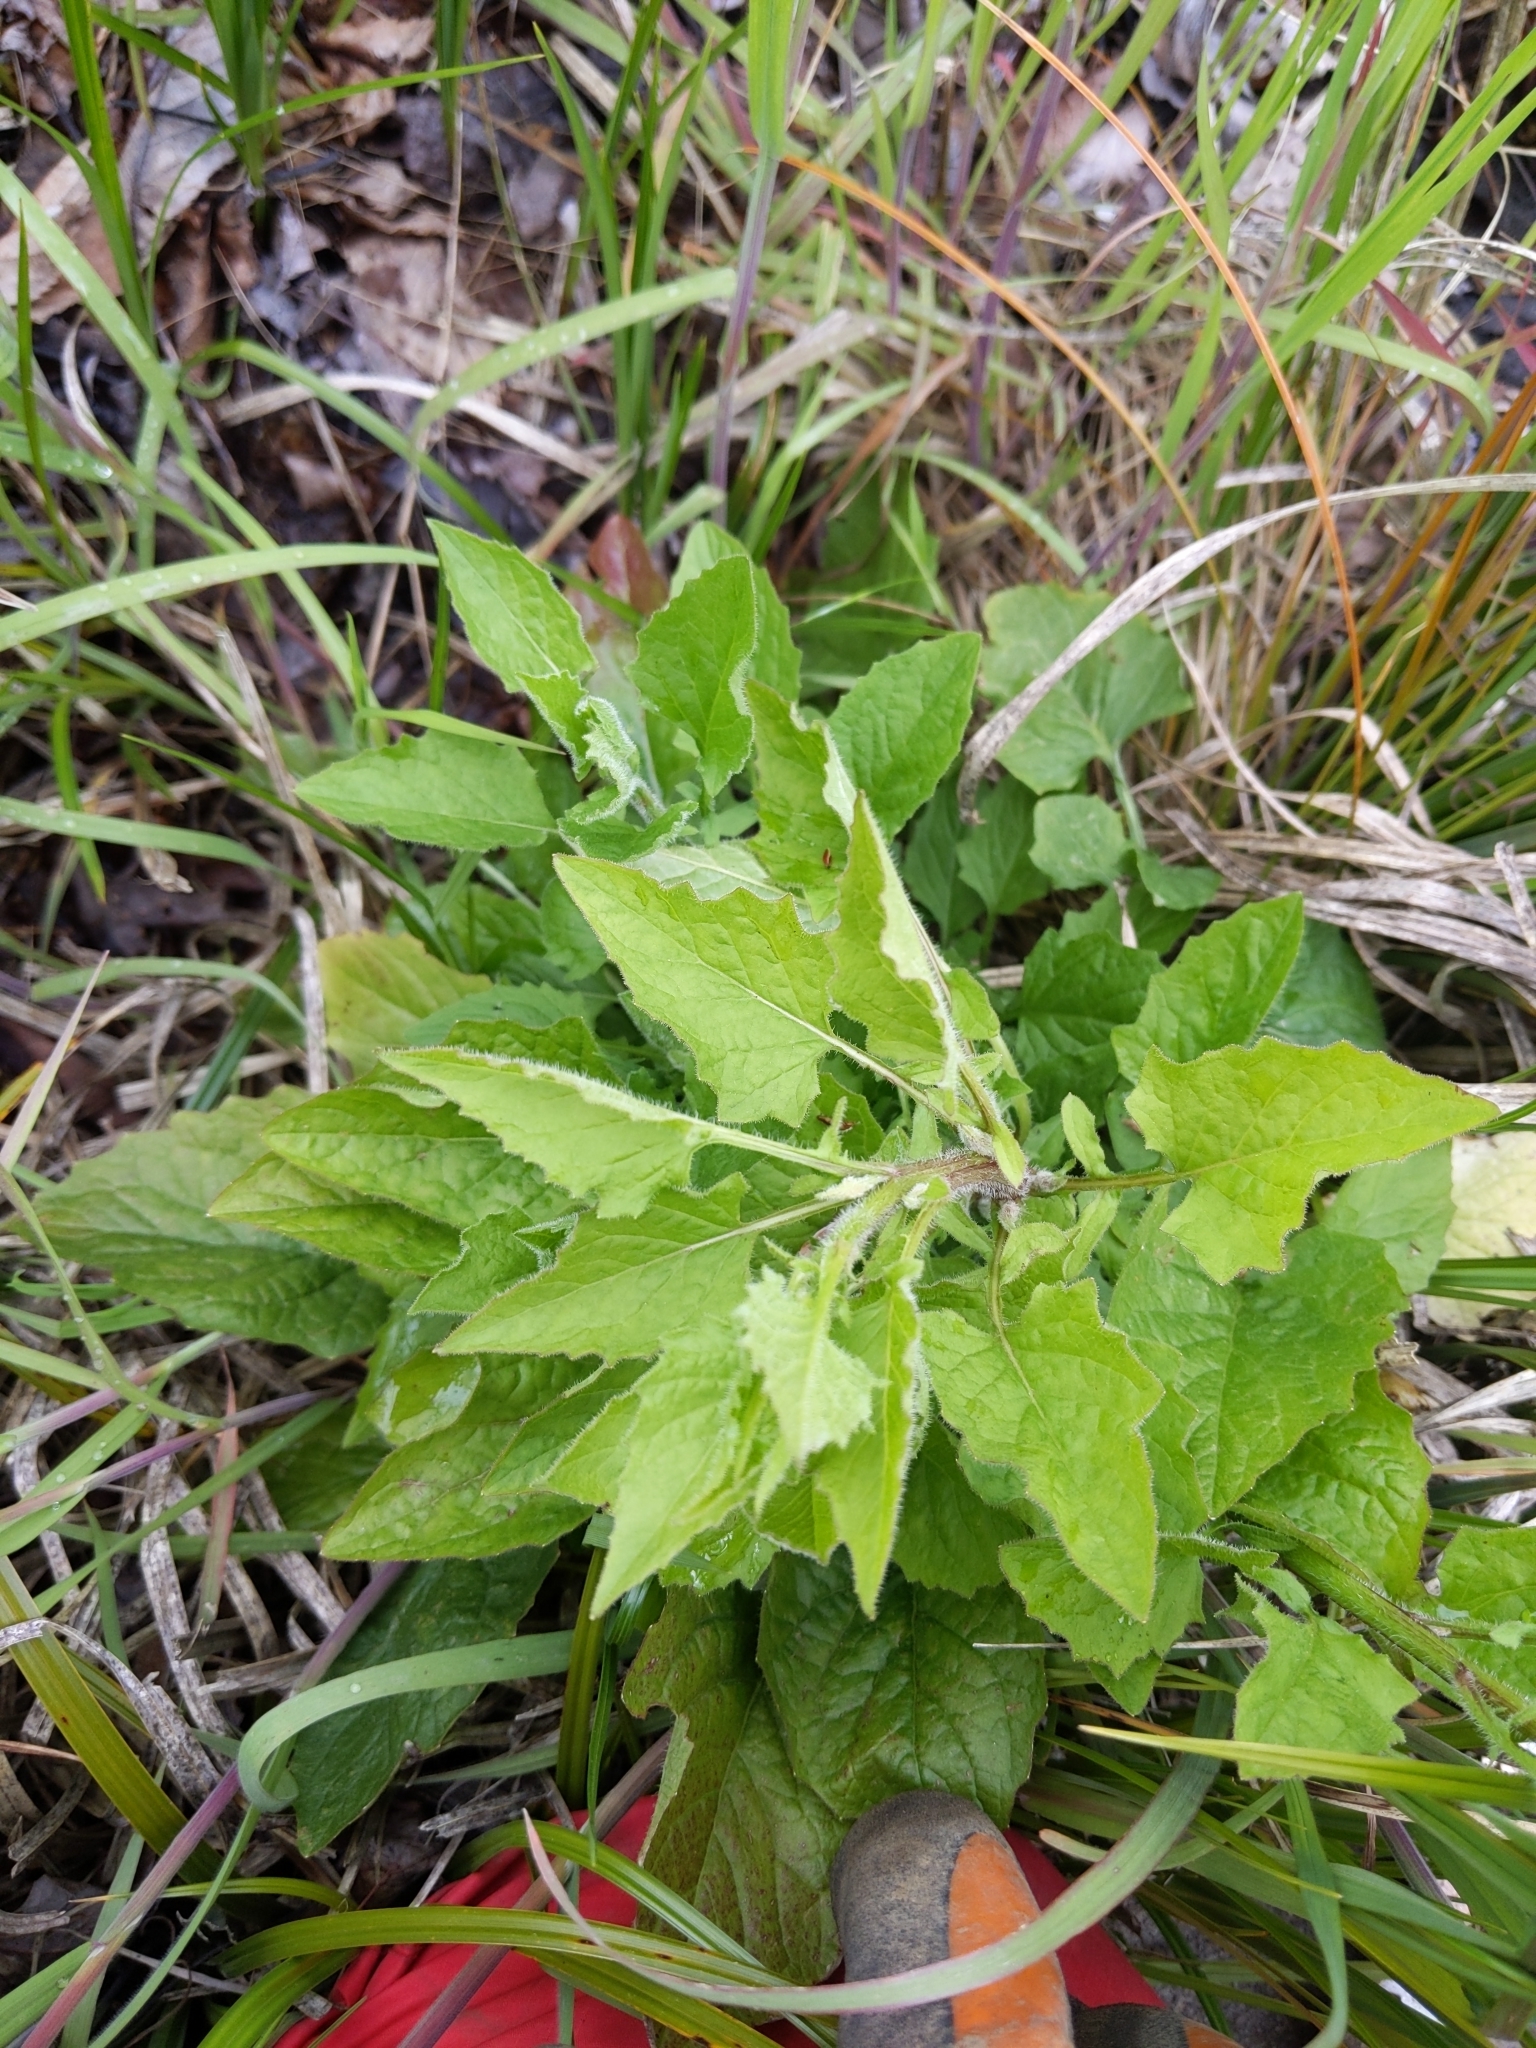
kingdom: Plantae
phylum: Tracheophyta
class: Magnoliopsida
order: Asterales
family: Asteraceae
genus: Lapsana
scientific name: Lapsana communis
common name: Nipplewort
